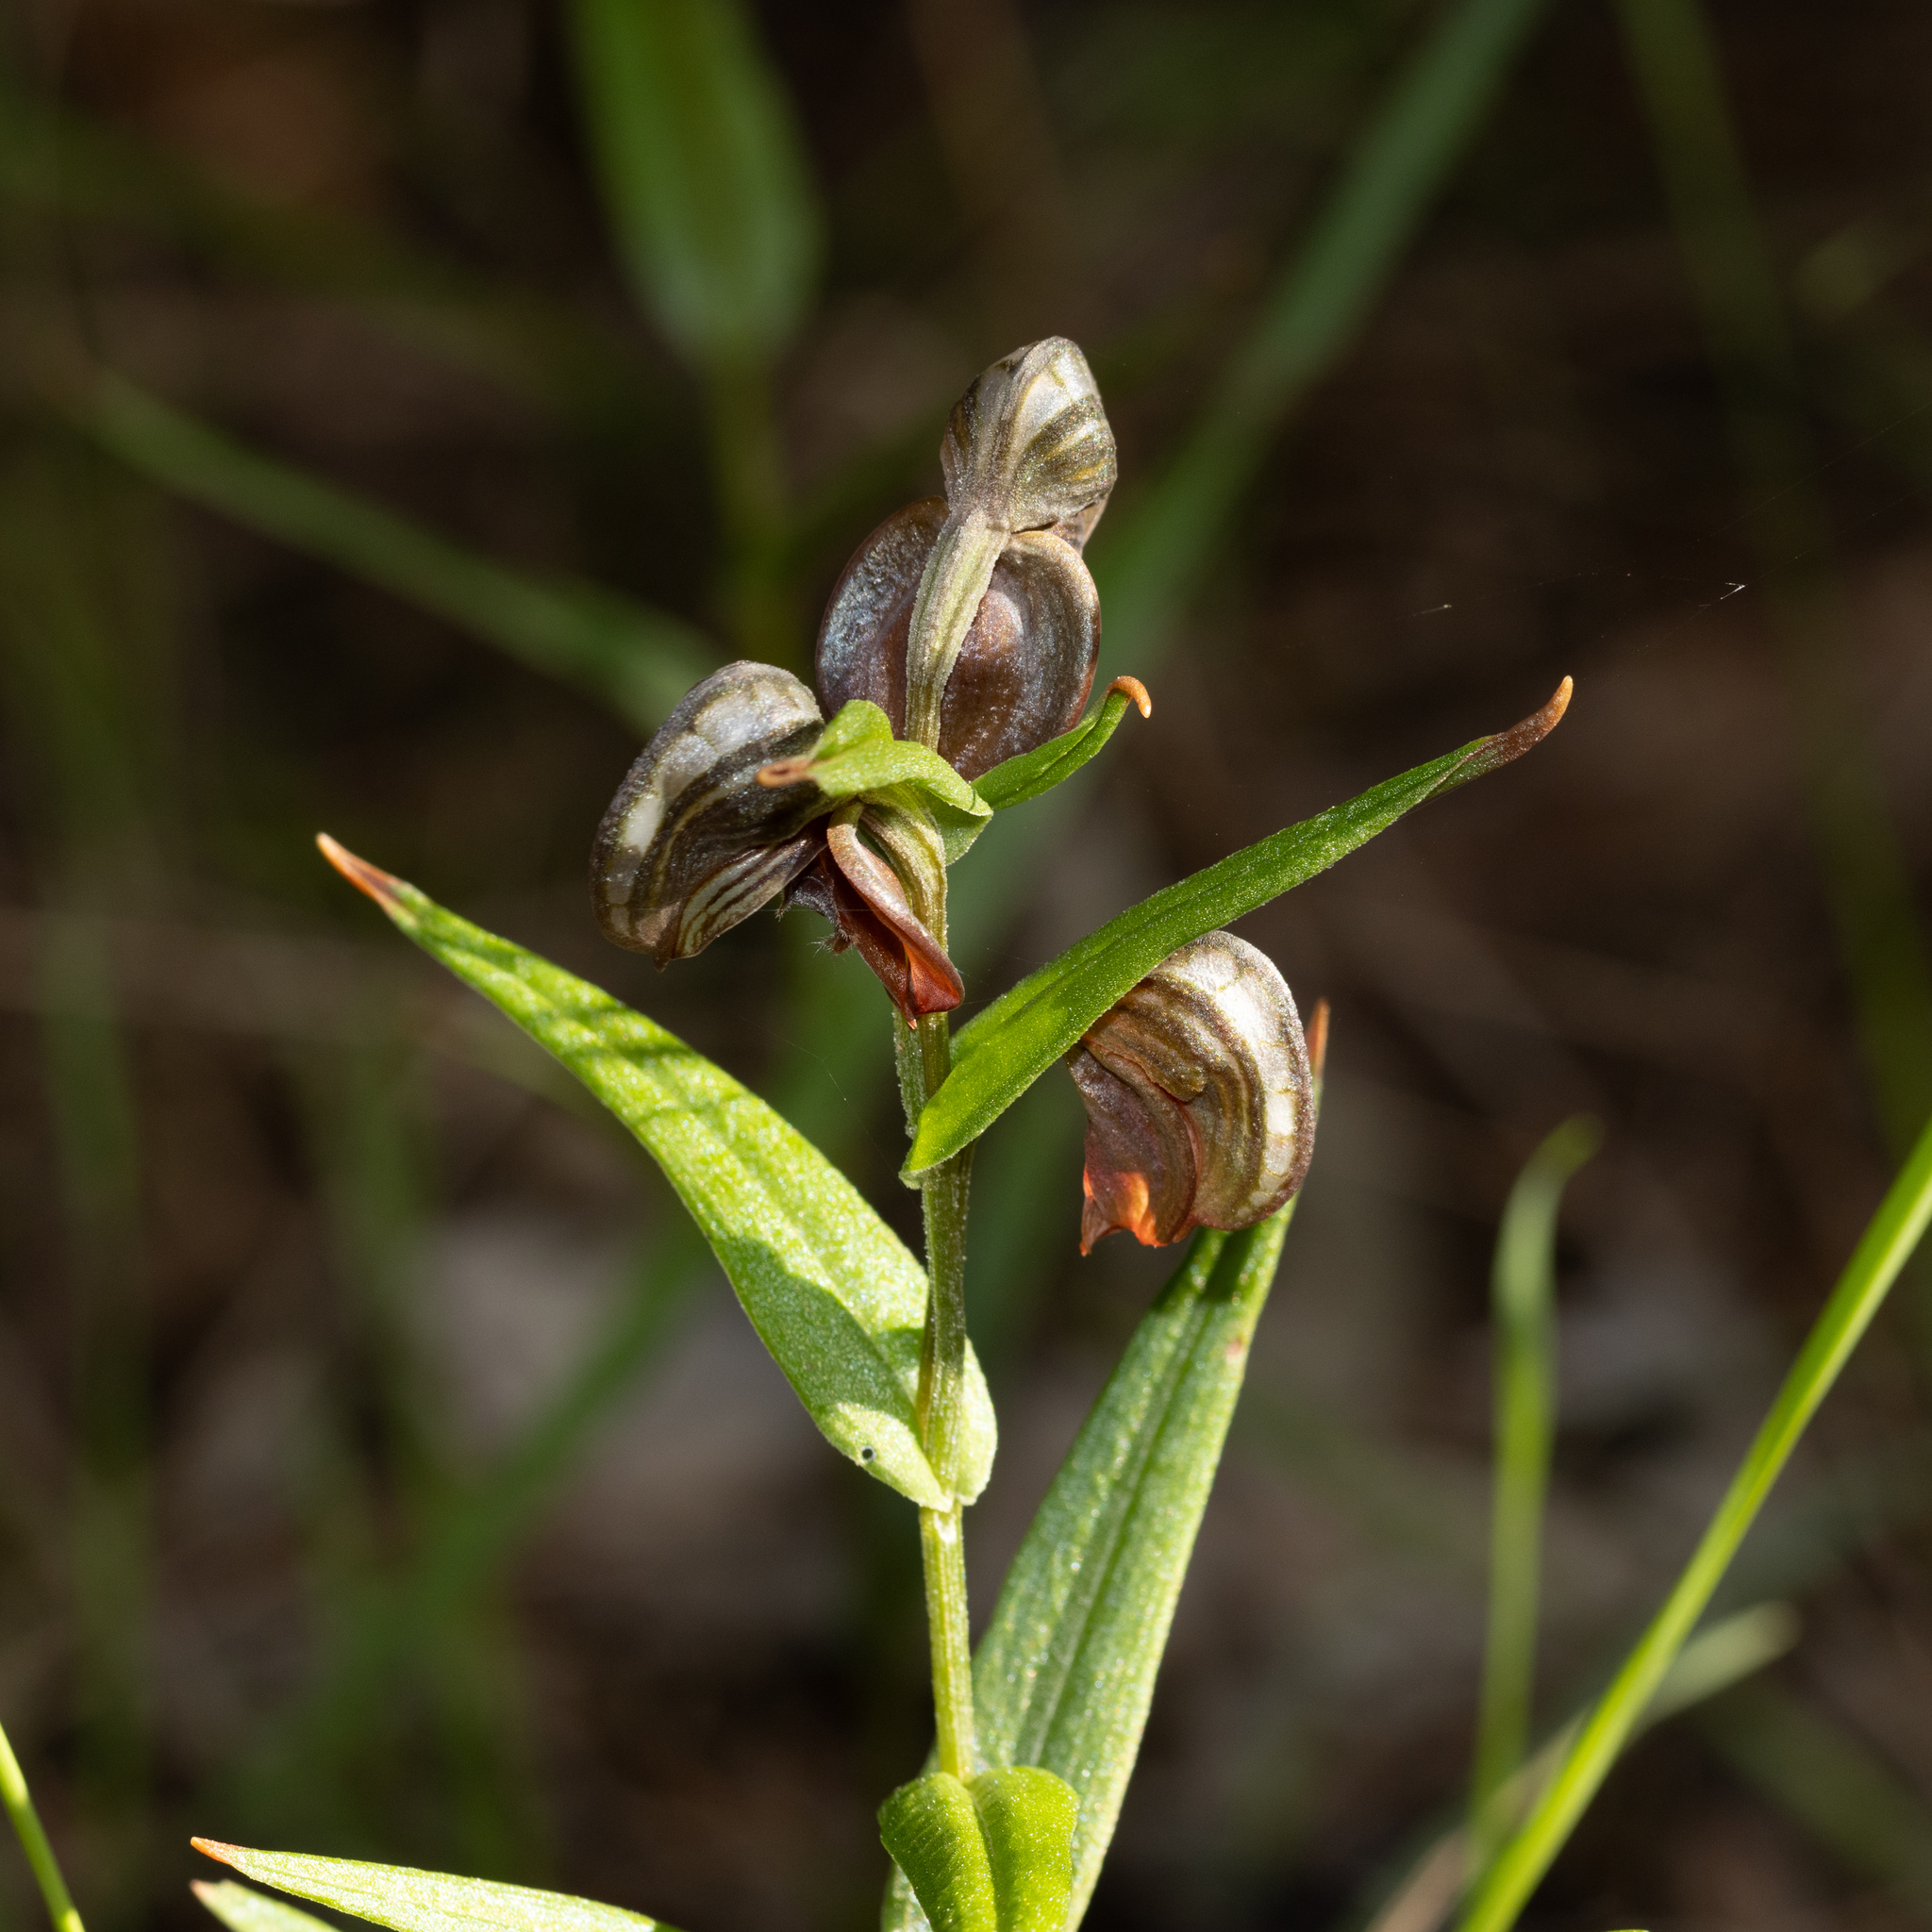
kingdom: Plantae
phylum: Tracheophyta
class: Liliopsida
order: Asparagales
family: Orchidaceae
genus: Pterostylis
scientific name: Pterostylis sanguinea
